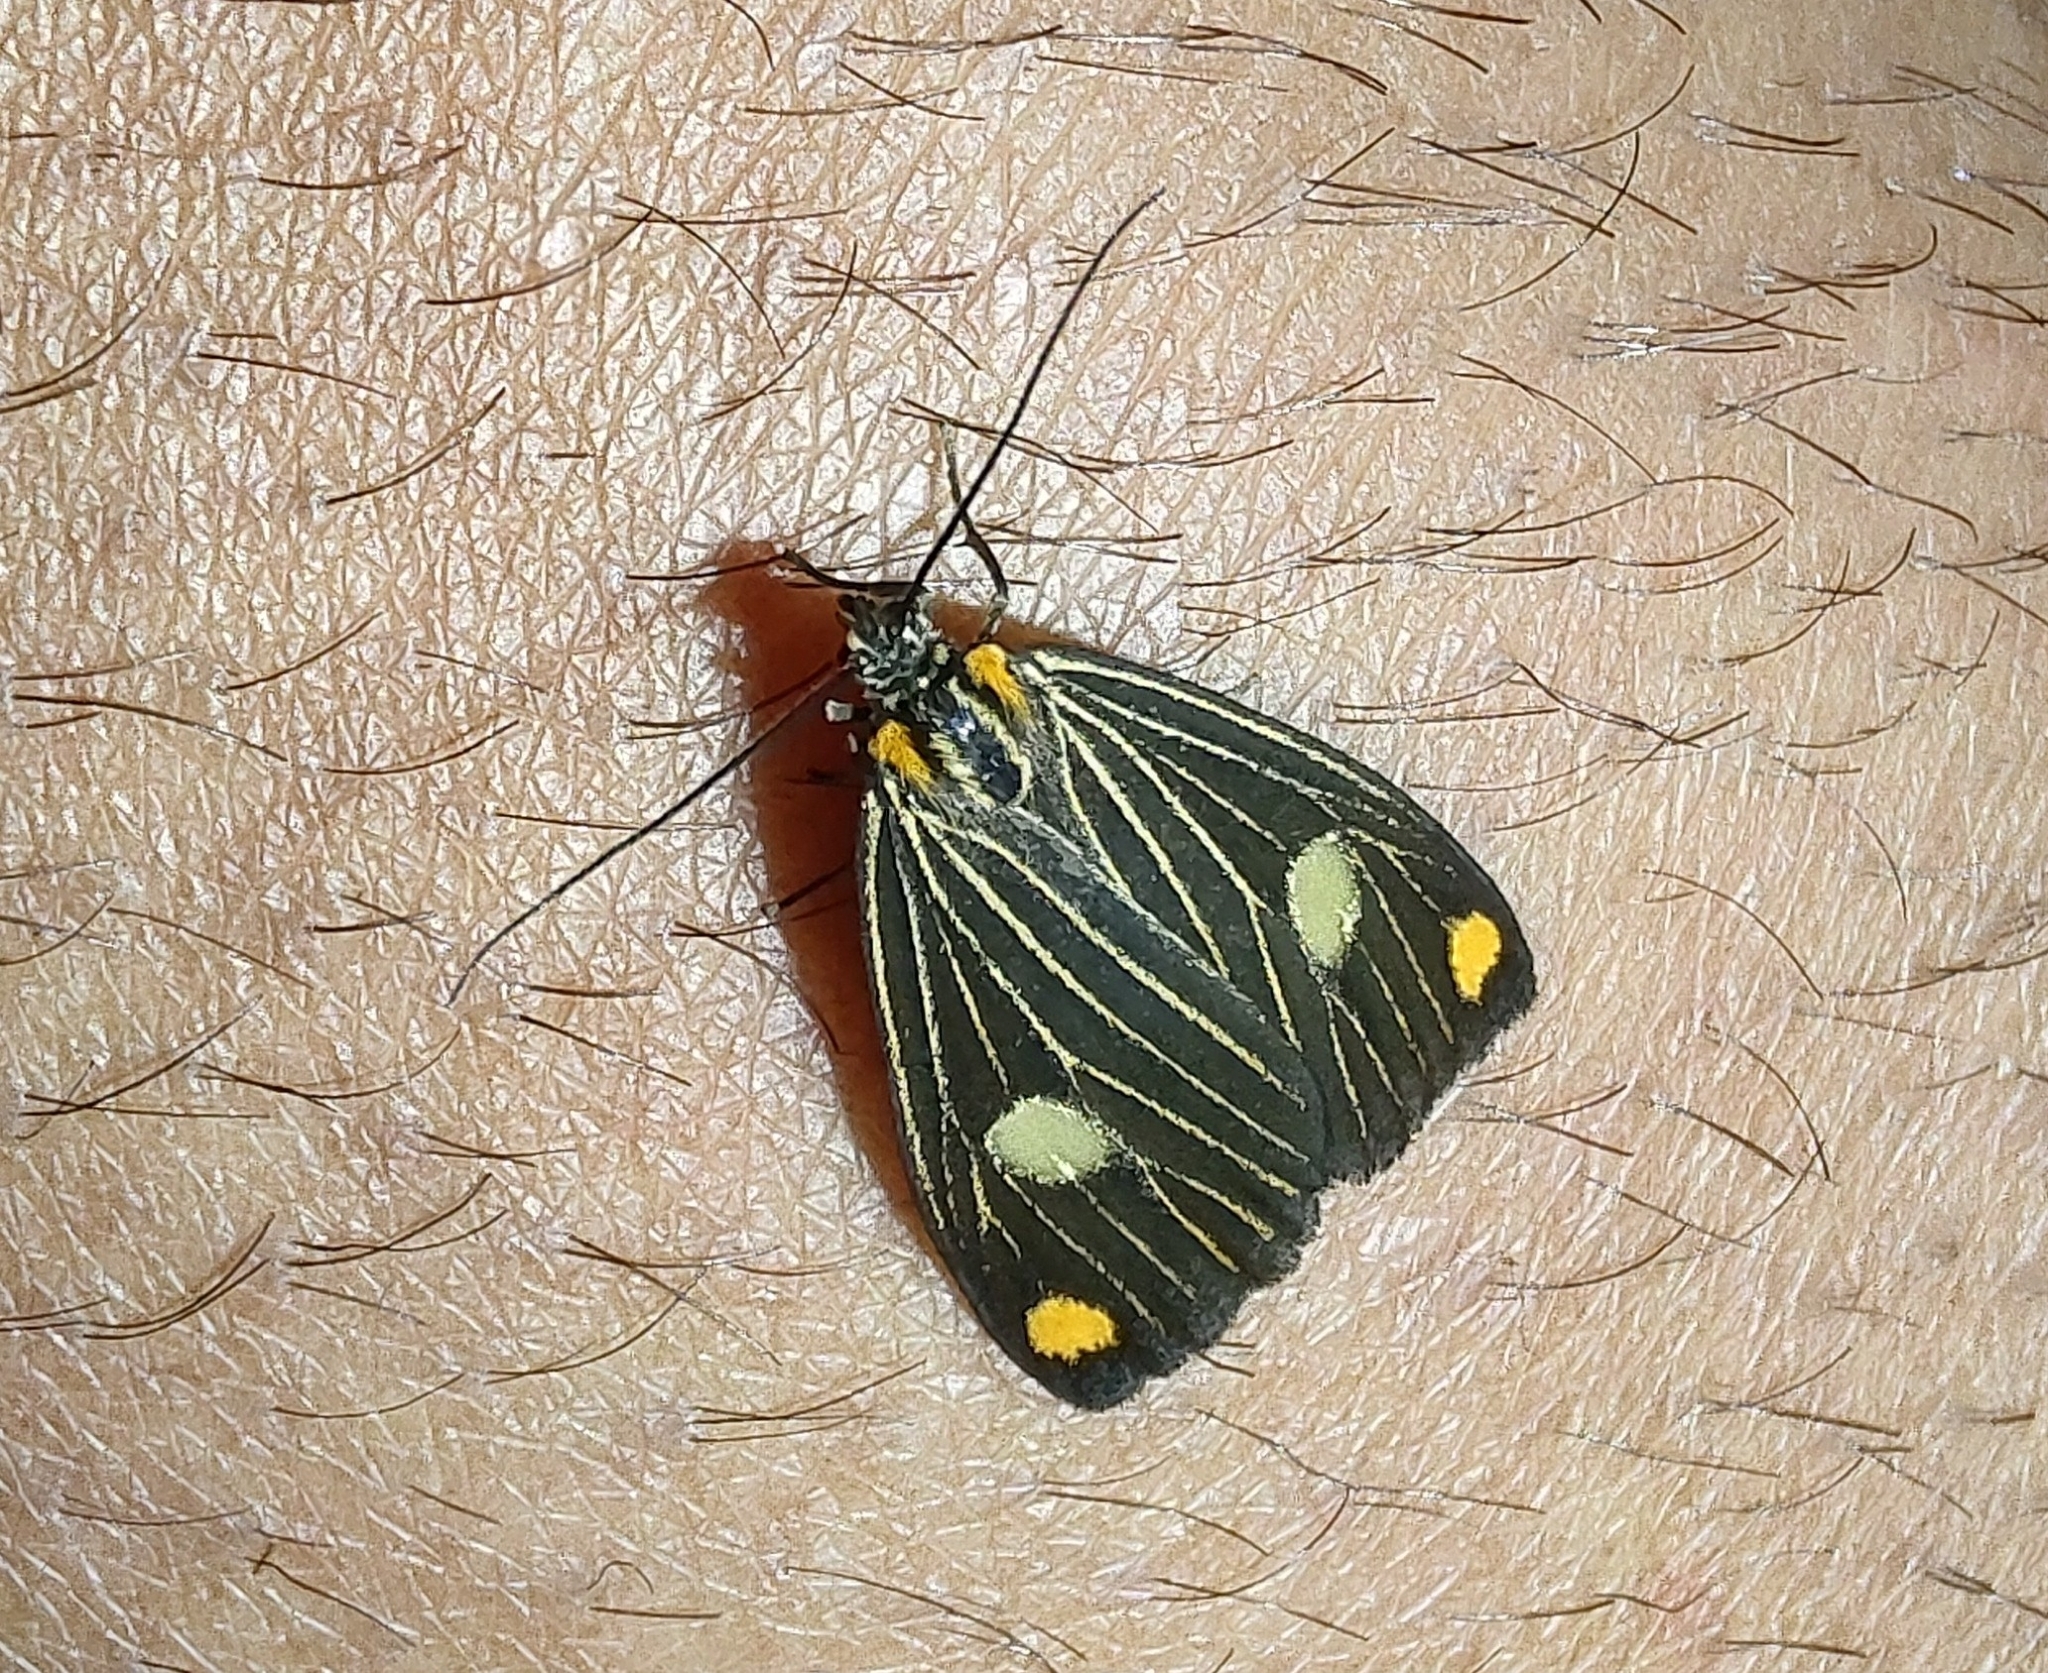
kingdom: Animalia
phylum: Arthropoda
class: Insecta
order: Lepidoptera
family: Notodontidae
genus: Polypoetes
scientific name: Polypoetes
